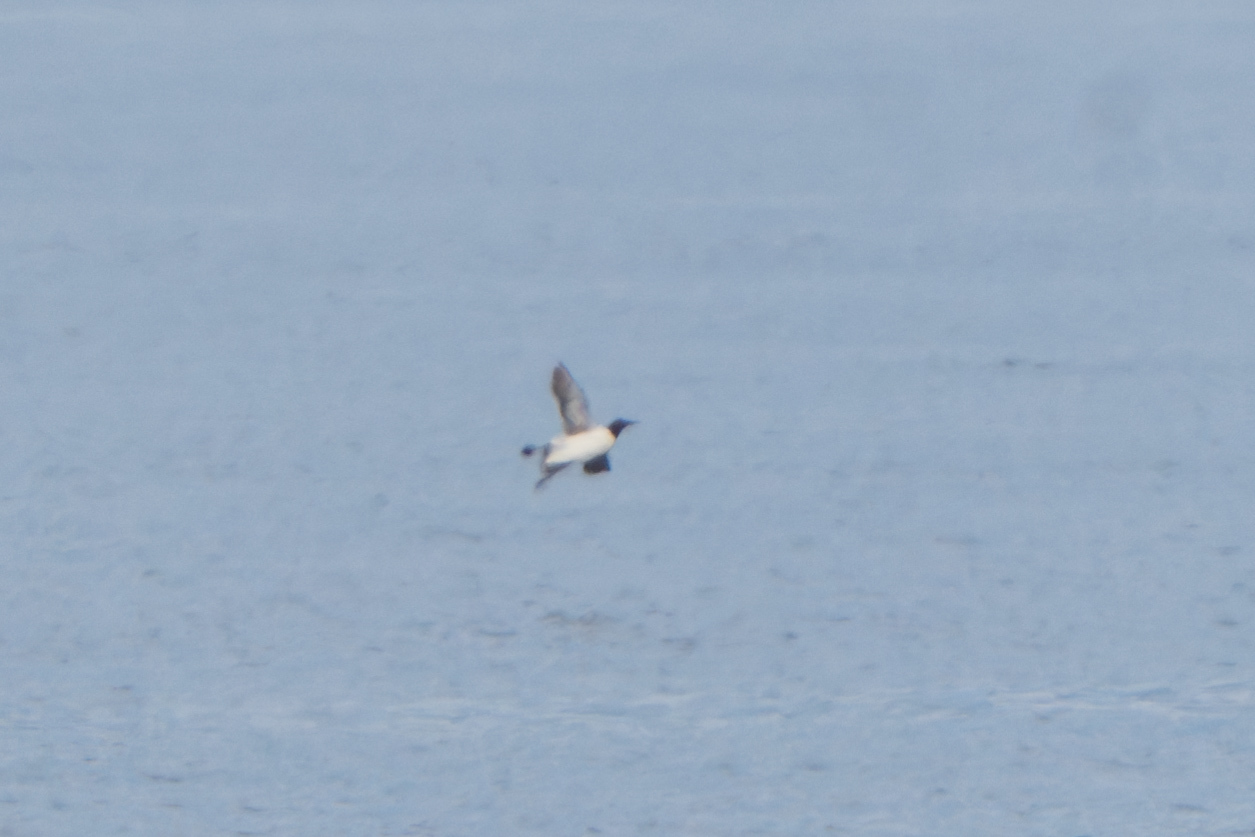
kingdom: Animalia
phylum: Chordata
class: Aves
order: Charadriiformes
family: Alcidae
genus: Uria
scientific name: Uria aalge
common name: Common murre
